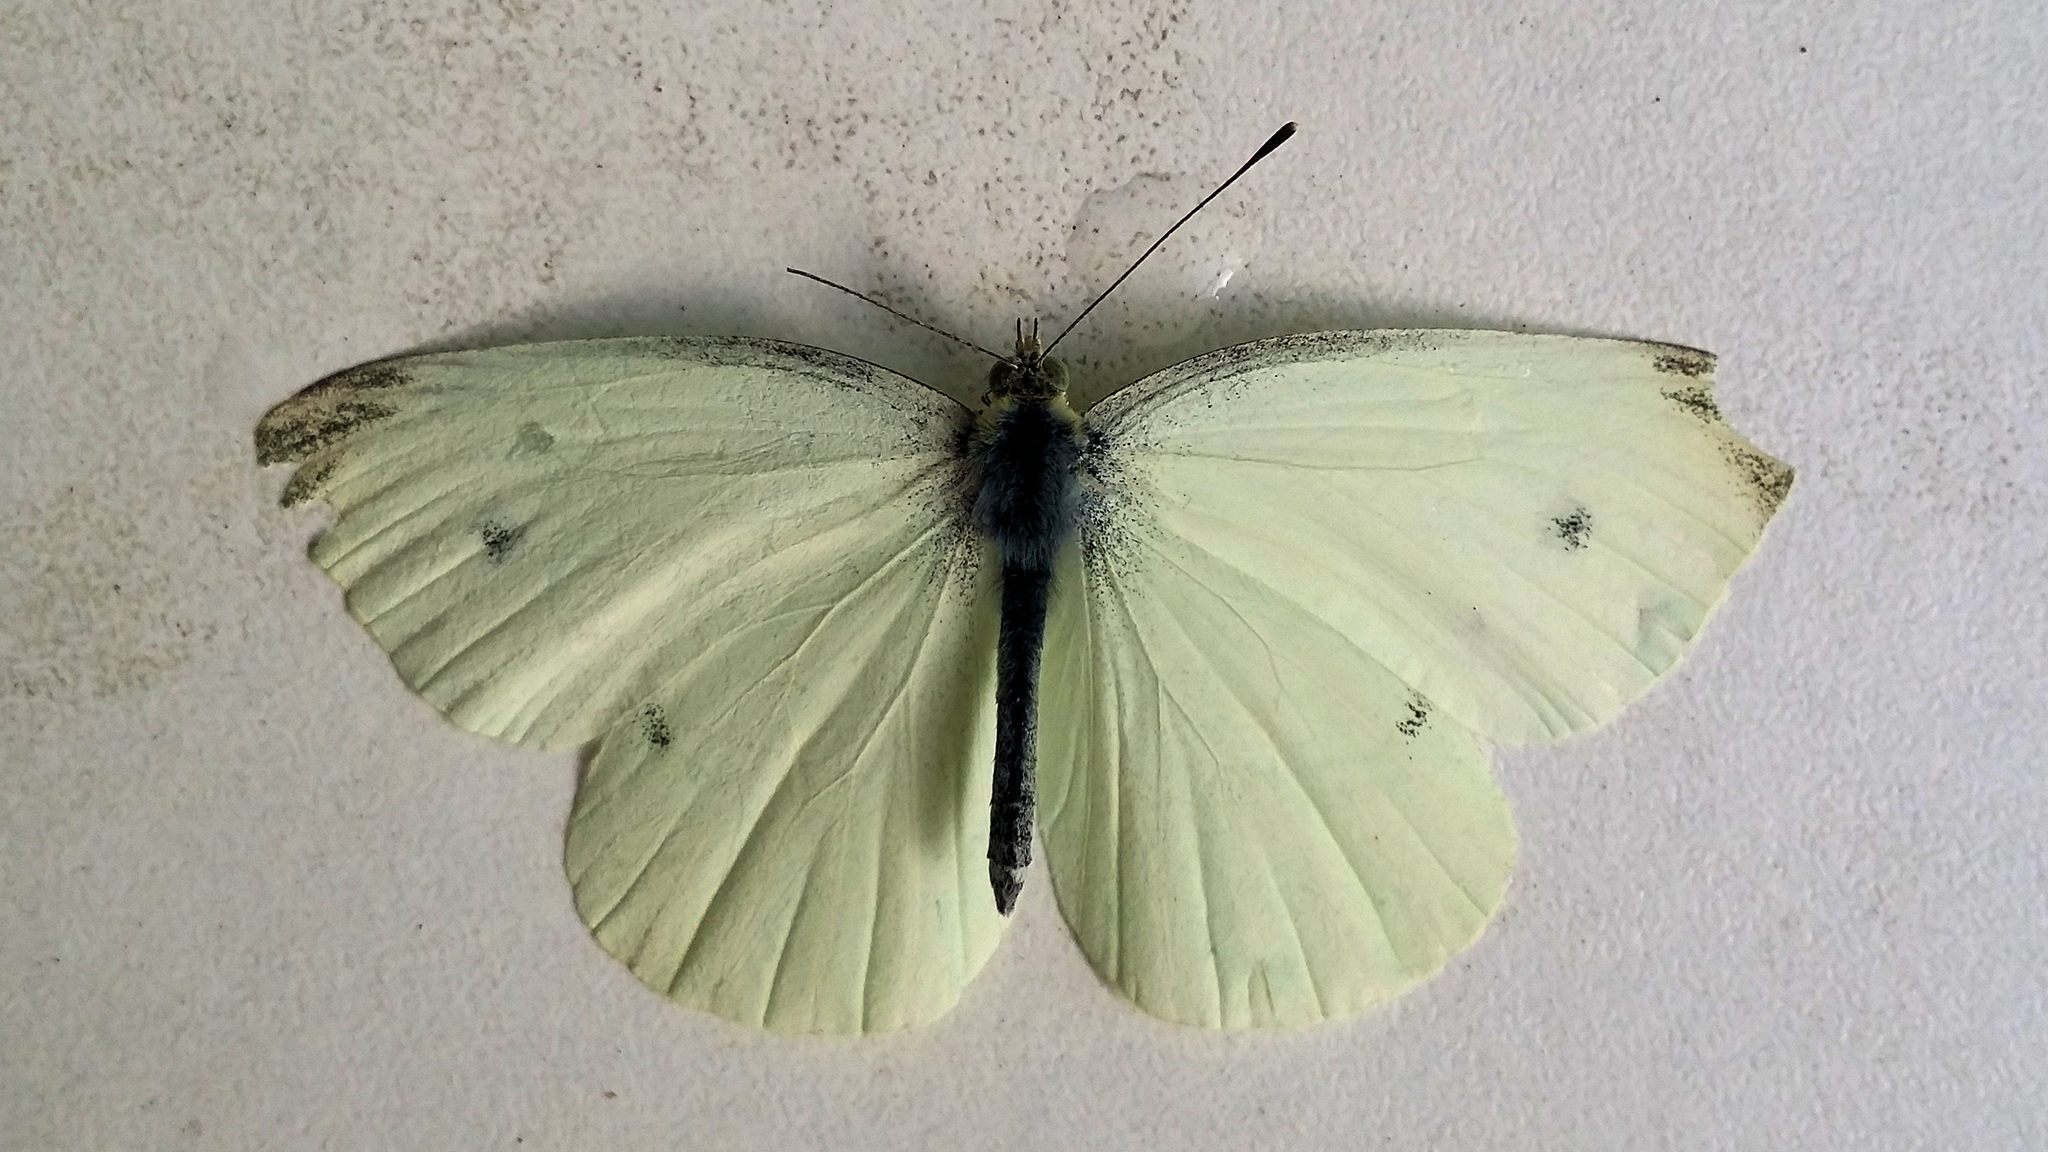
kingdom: Animalia
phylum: Arthropoda
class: Insecta
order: Lepidoptera
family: Pieridae
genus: Pieris
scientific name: Pieris rapae
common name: Small white
